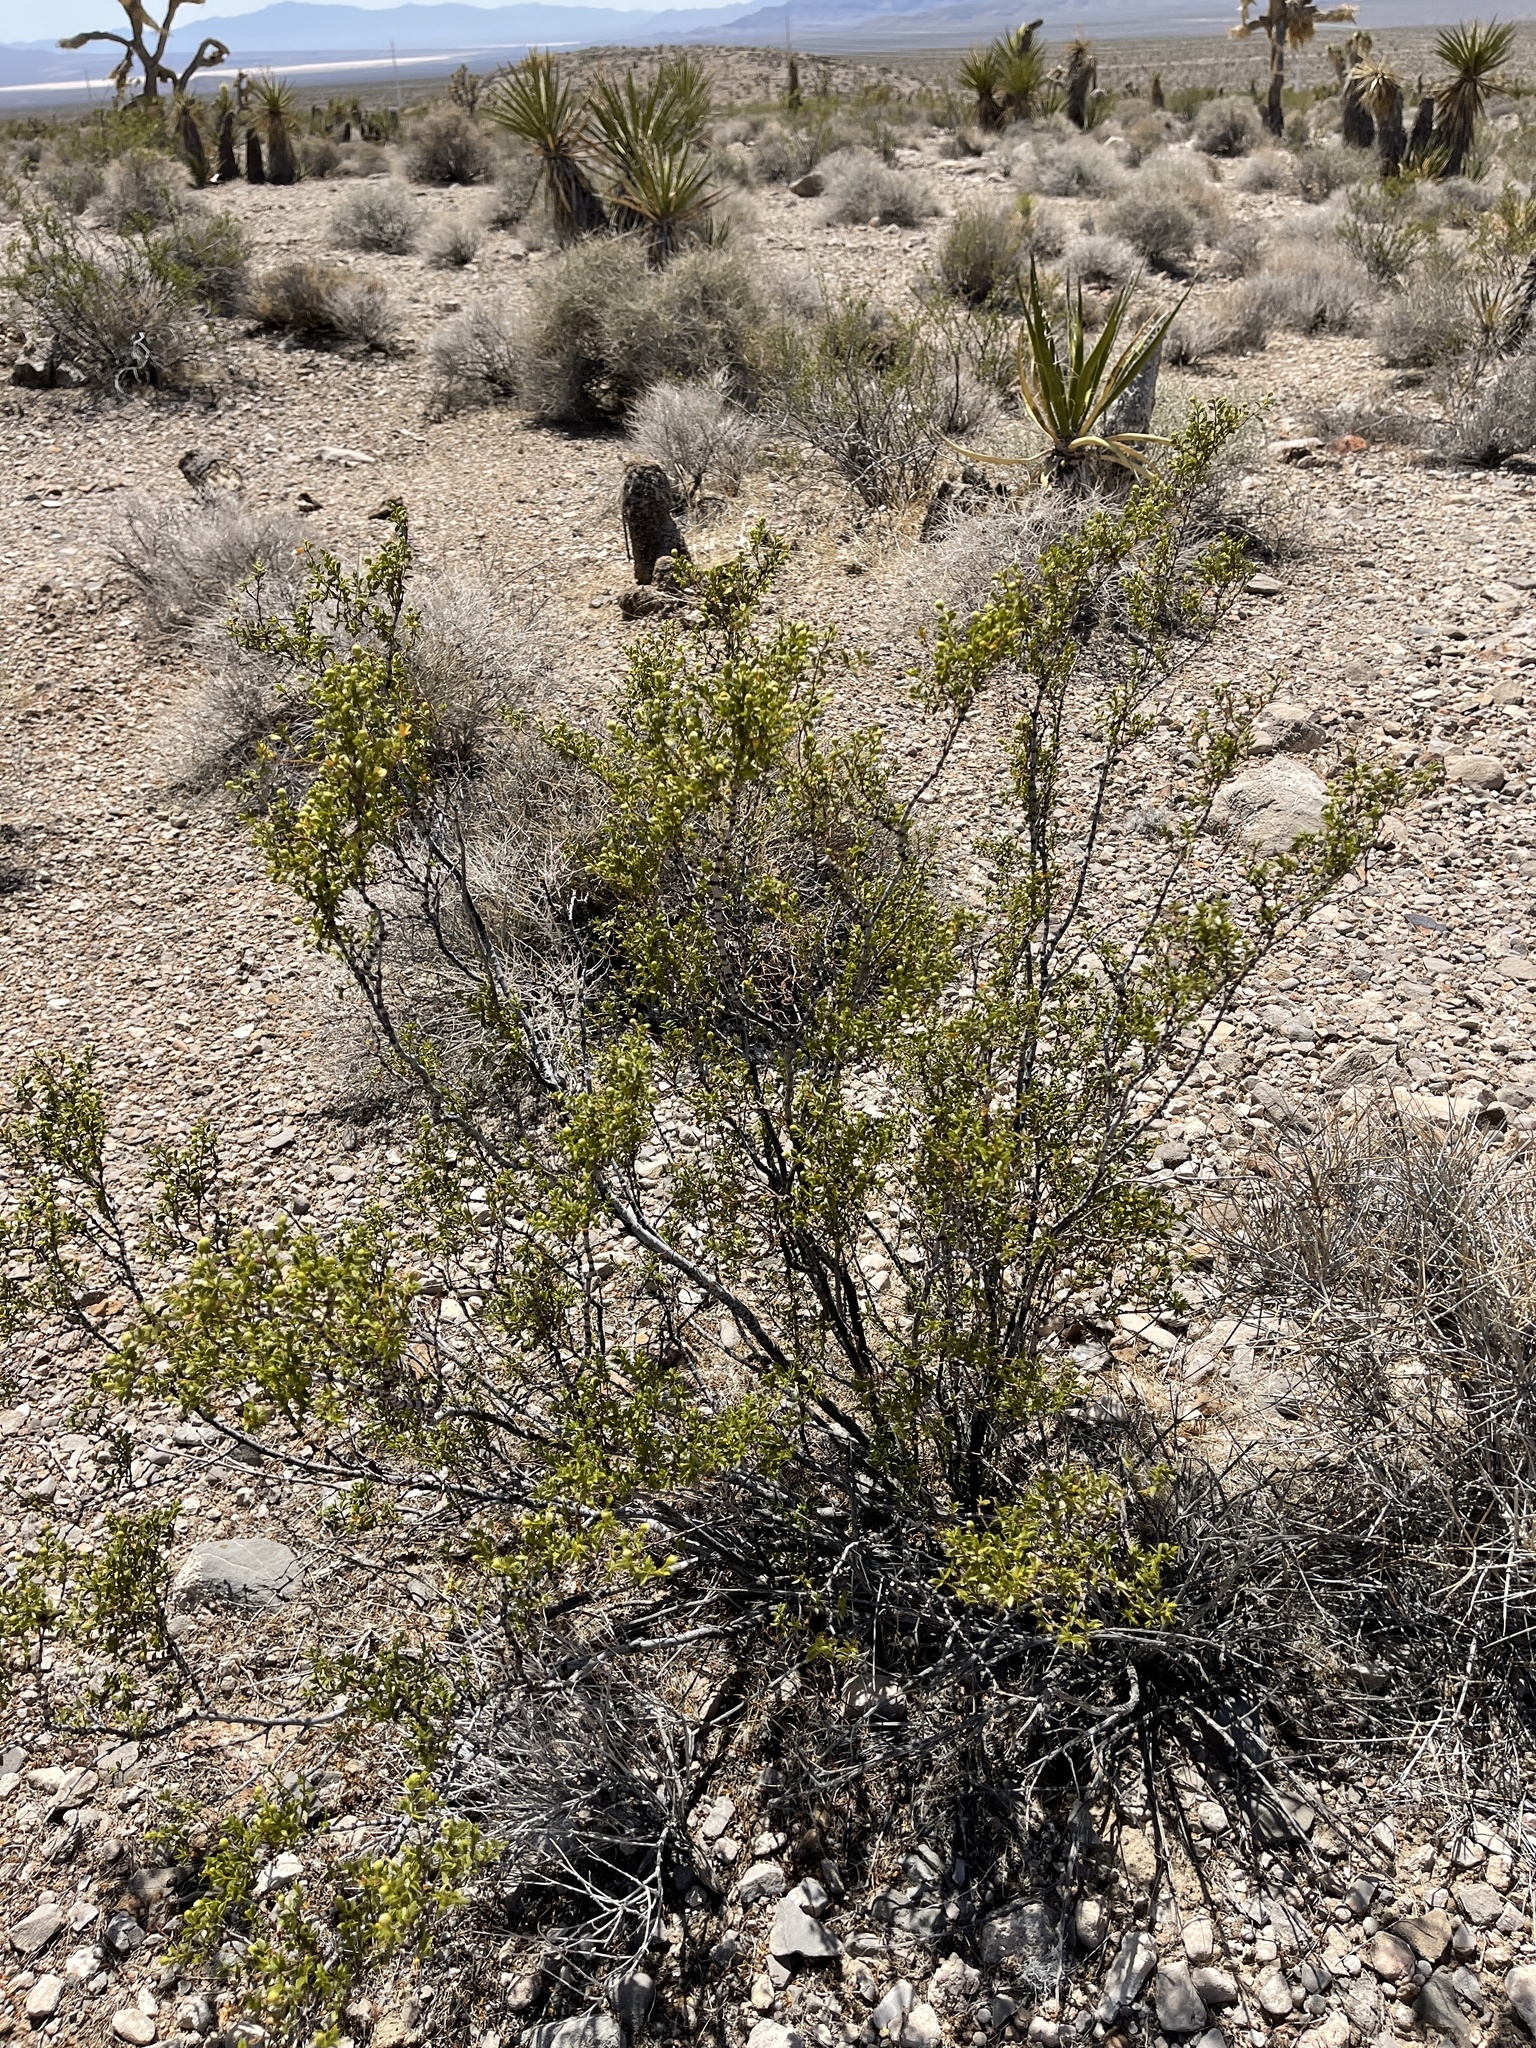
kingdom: Plantae
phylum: Tracheophyta
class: Magnoliopsida
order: Zygophyllales
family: Zygophyllaceae
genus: Larrea
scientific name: Larrea tridentata
